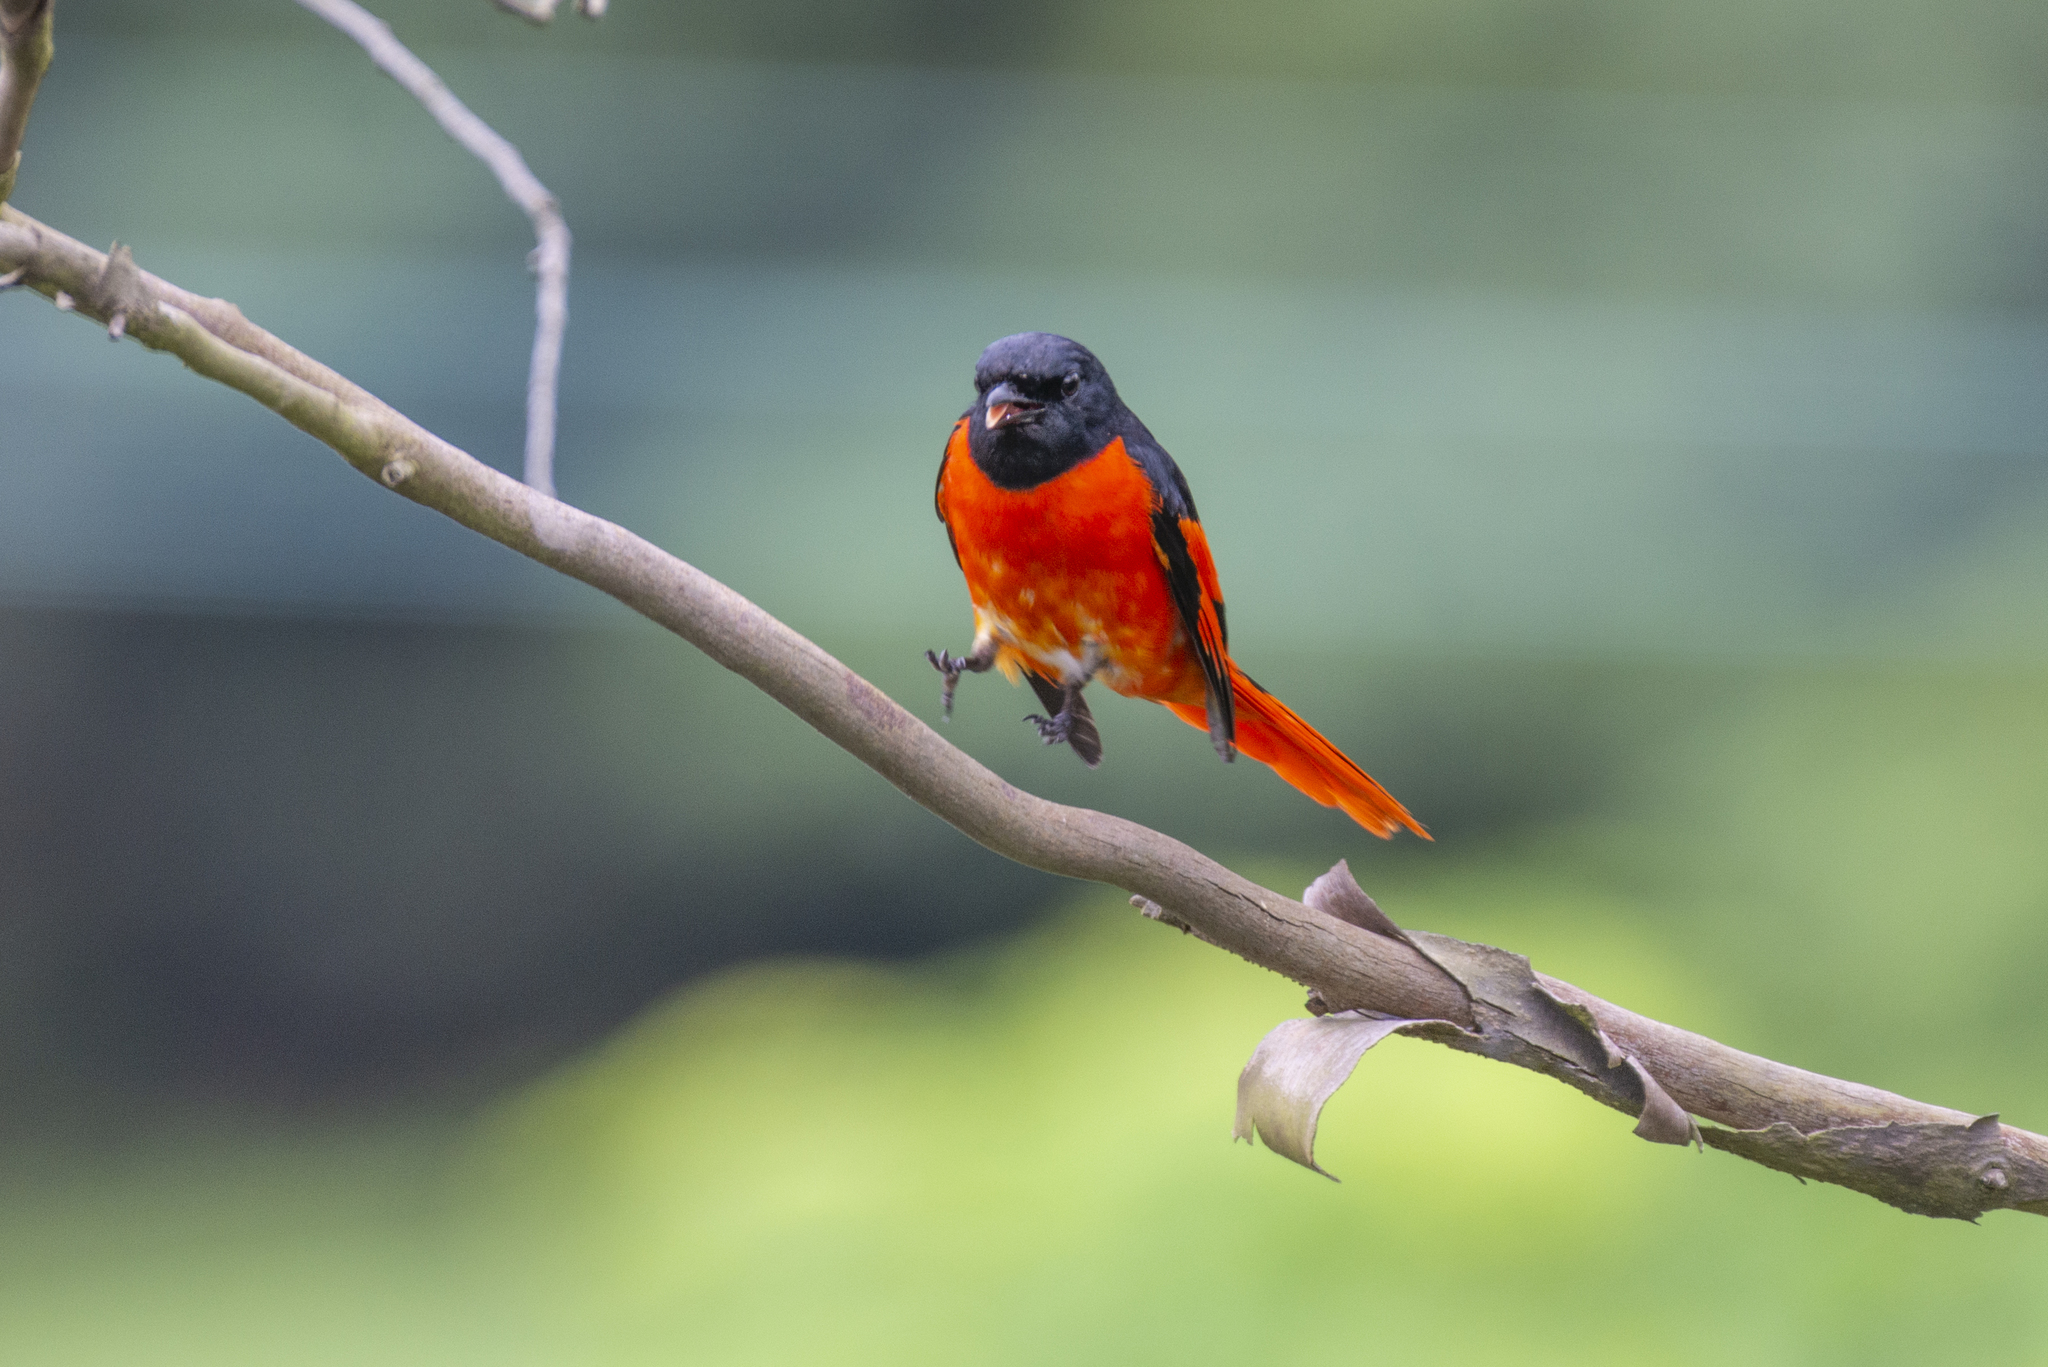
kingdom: Animalia
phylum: Chordata
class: Aves
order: Passeriformes
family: Campephagidae
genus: Pericrocotus
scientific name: Pericrocotus speciosus
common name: Scarlet minivet
